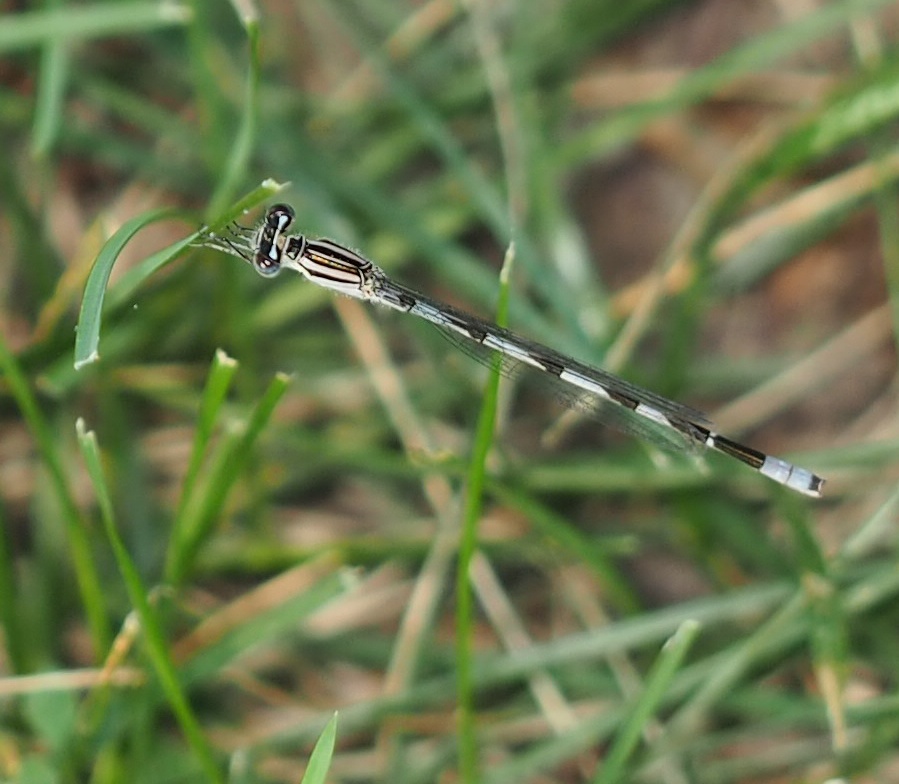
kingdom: Animalia
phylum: Arthropoda
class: Insecta
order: Odonata
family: Coenagrionidae
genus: Enallagma
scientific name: Enallagma durum
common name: Big bluet
